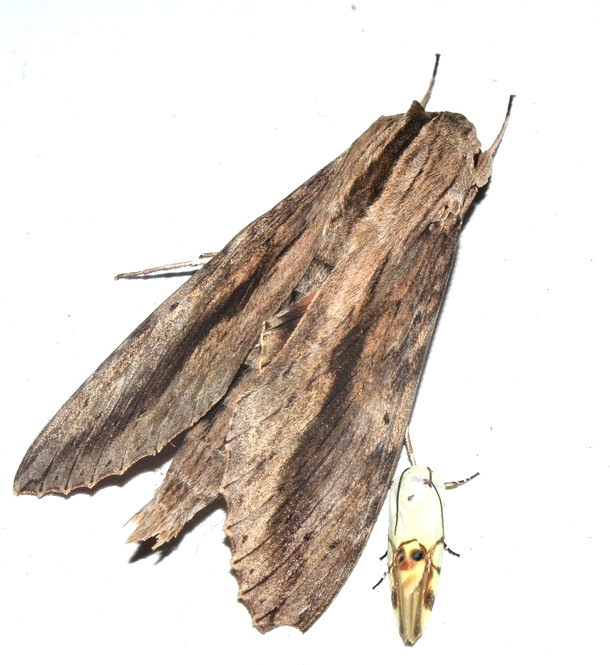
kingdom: Animalia
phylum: Arthropoda
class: Insecta
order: Lepidoptera
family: Sphingidae
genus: Erinnyis
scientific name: Erinnyis ello
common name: Ello sphinx
